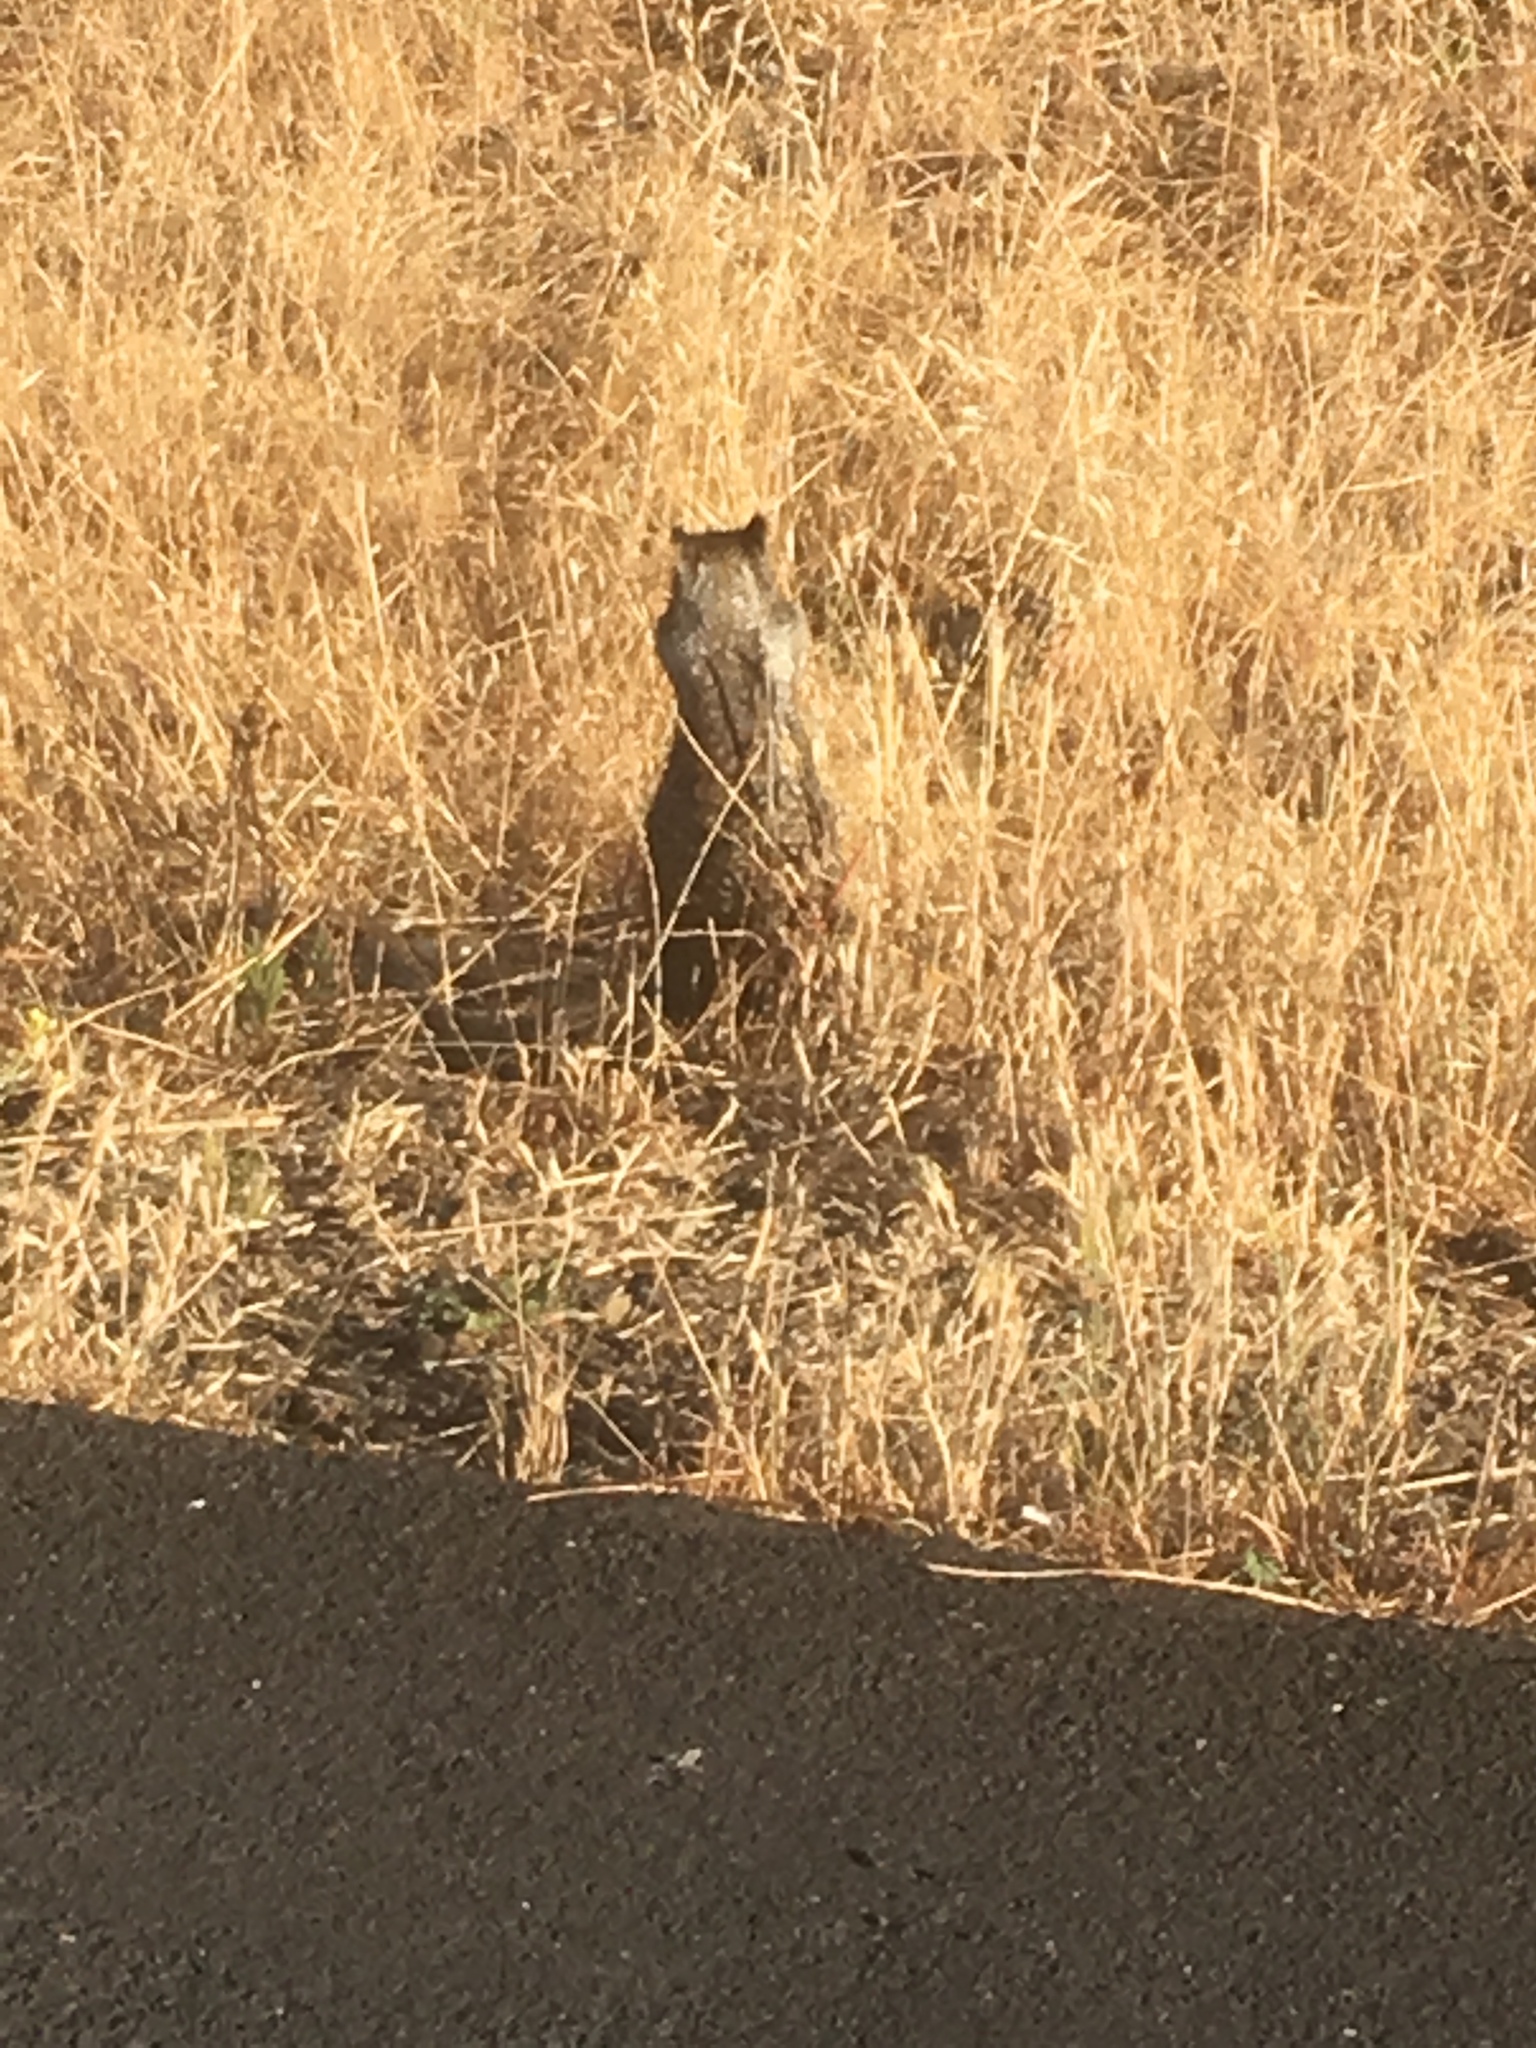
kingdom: Animalia
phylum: Chordata
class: Mammalia
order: Rodentia
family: Sciuridae
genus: Otospermophilus
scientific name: Otospermophilus beecheyi
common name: California ground squirrel
